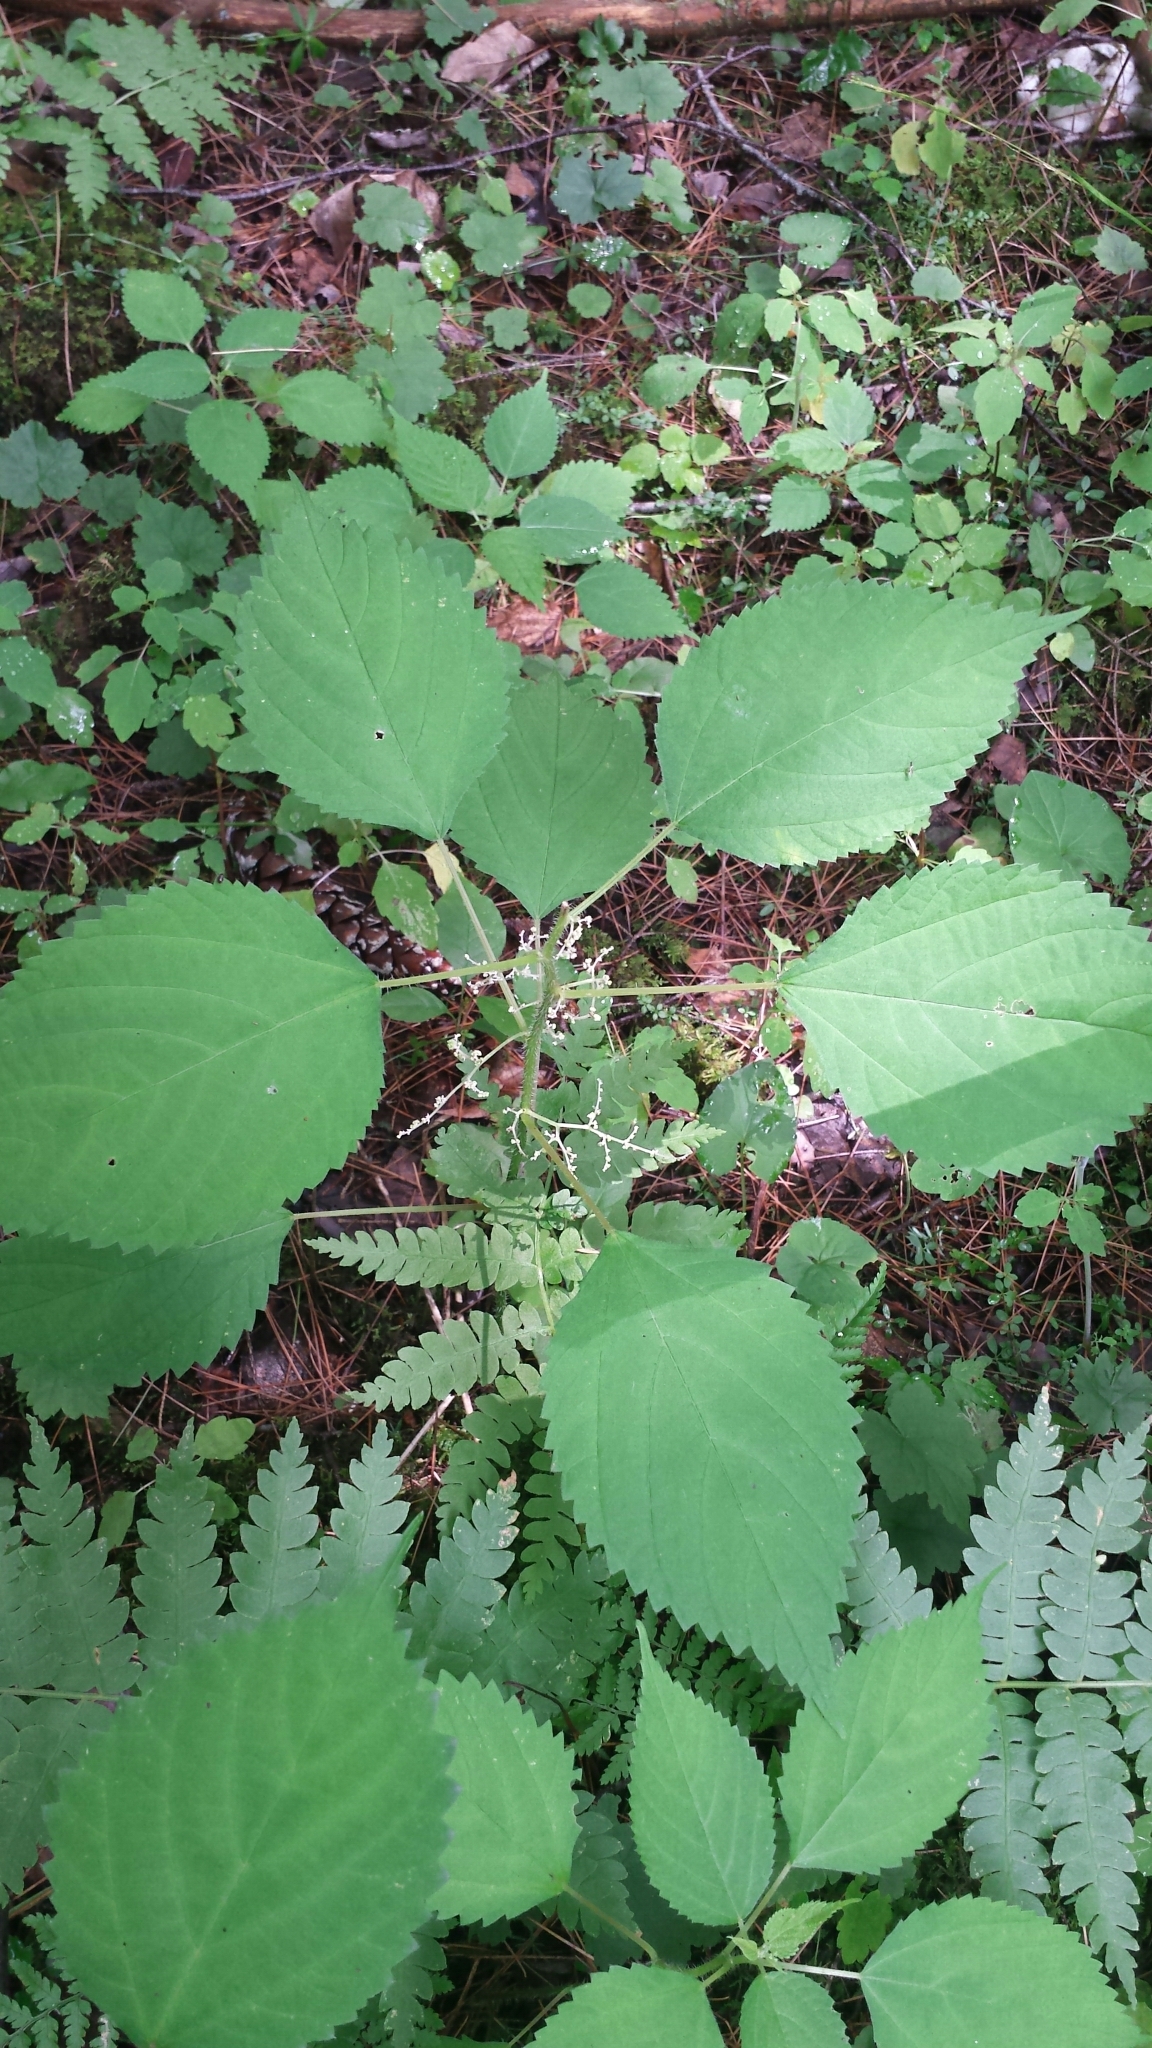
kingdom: Plantae
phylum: Tracheophyta
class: Magnoliopsida
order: Rosales
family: Urticaceae
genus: Laportea
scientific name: Laportea canadensis
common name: Canada nettle
